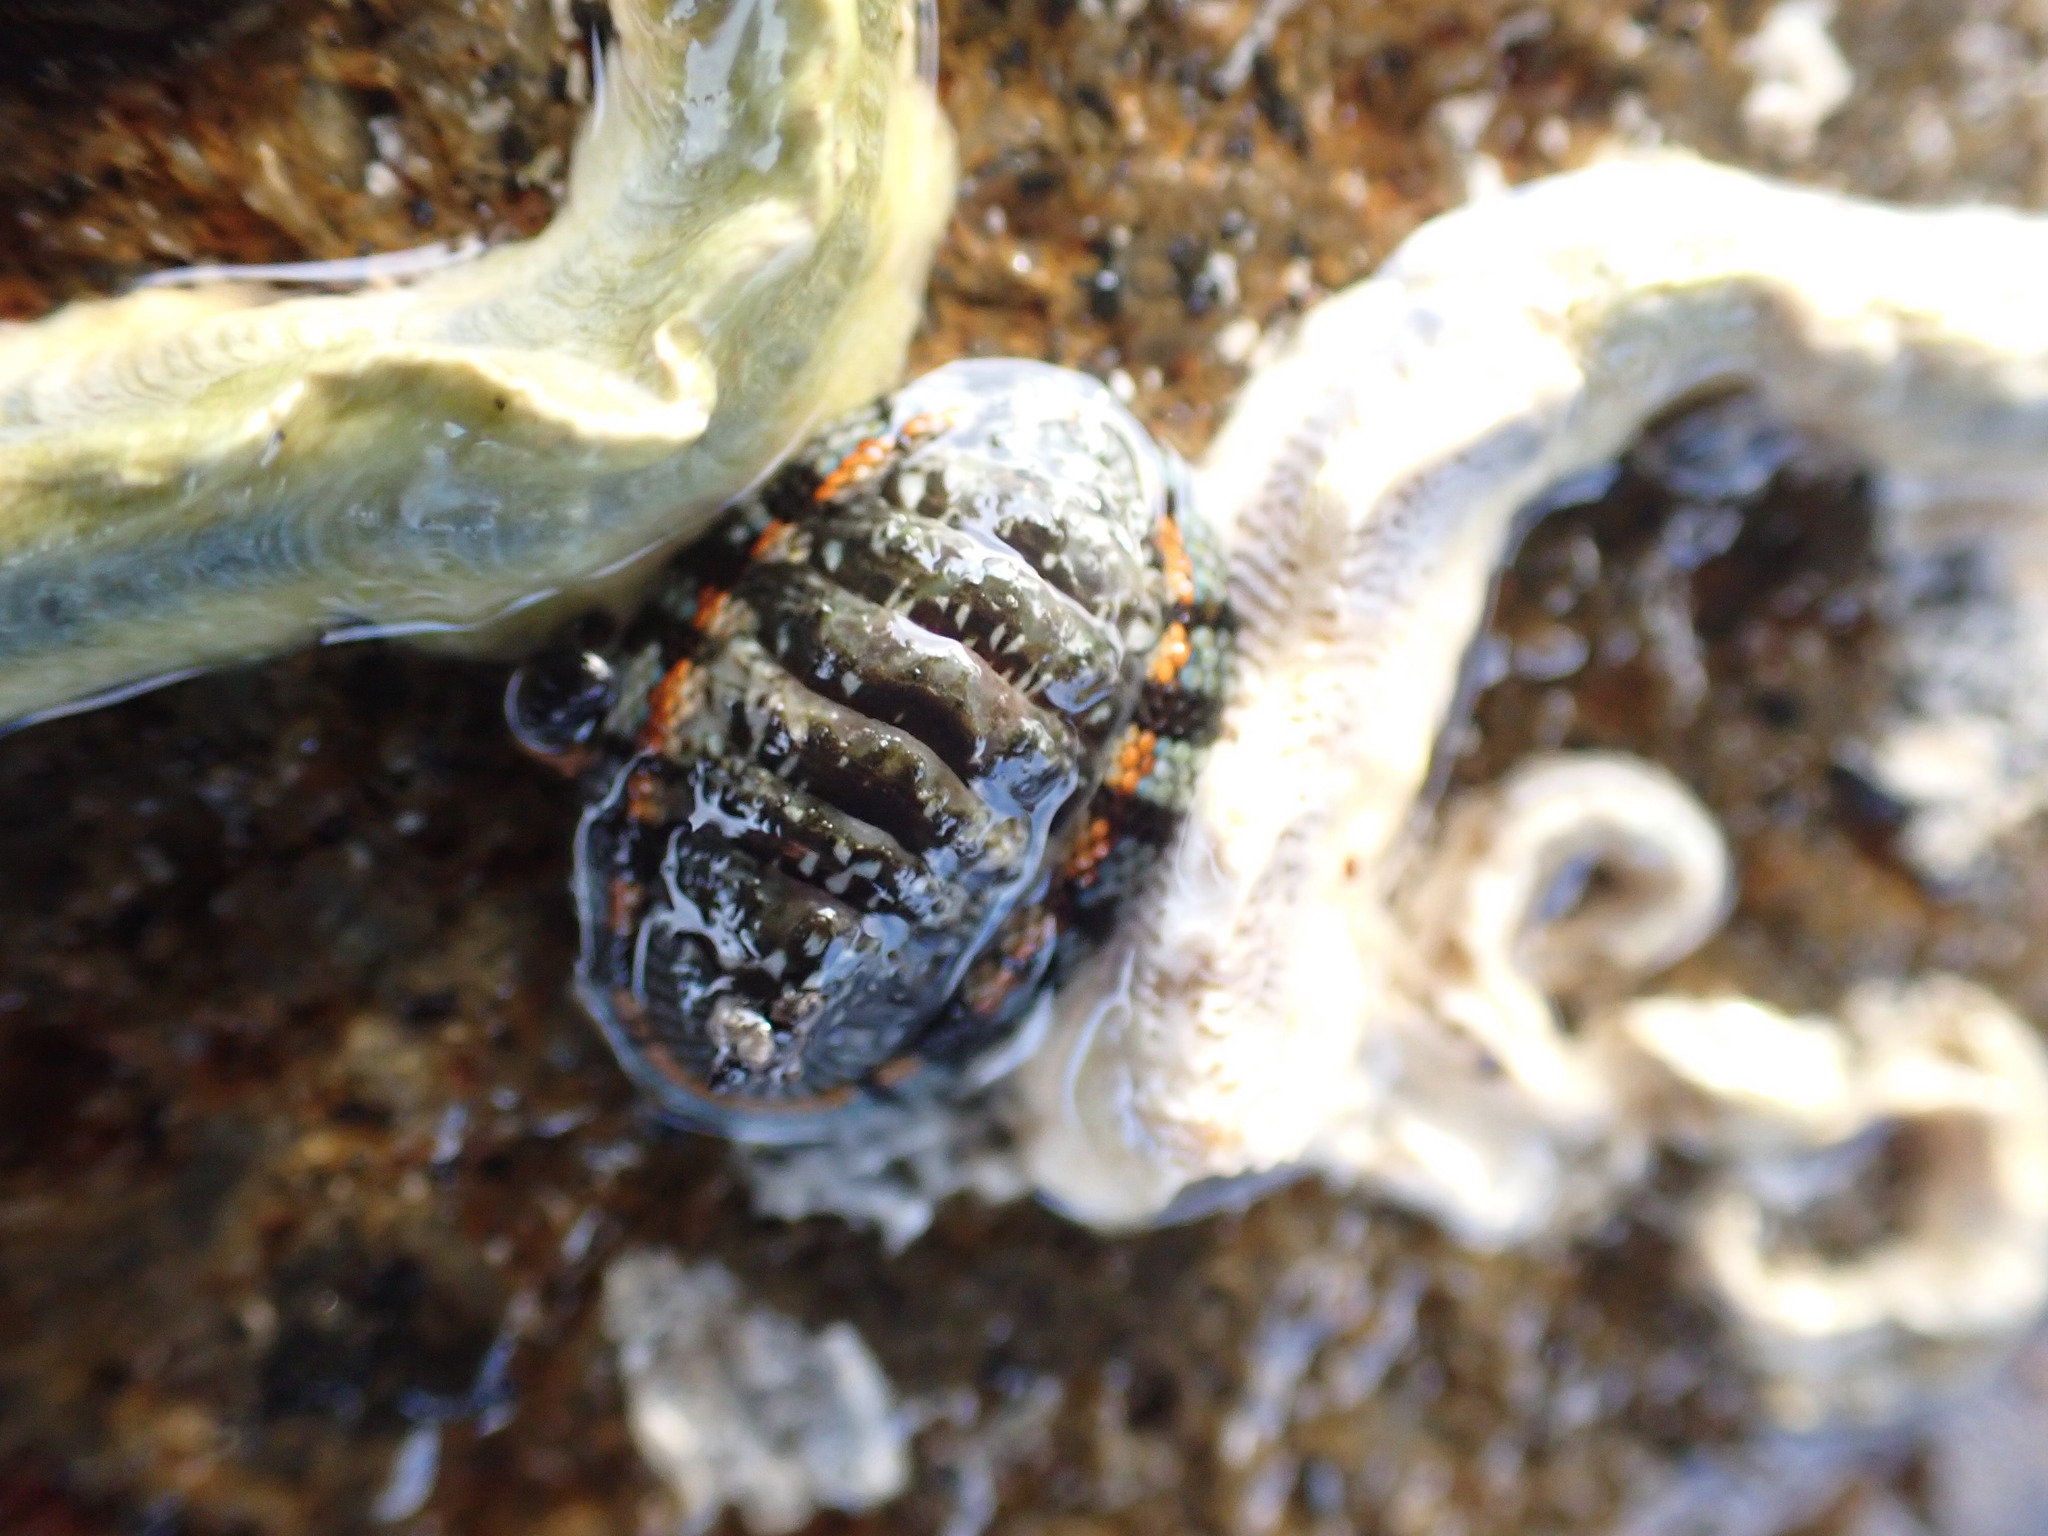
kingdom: Animalia
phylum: Mollusca
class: Polyplacophora
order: Chitonida
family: Chitonidae
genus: Sypharochiton
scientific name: Sypharochiton sinclairi
